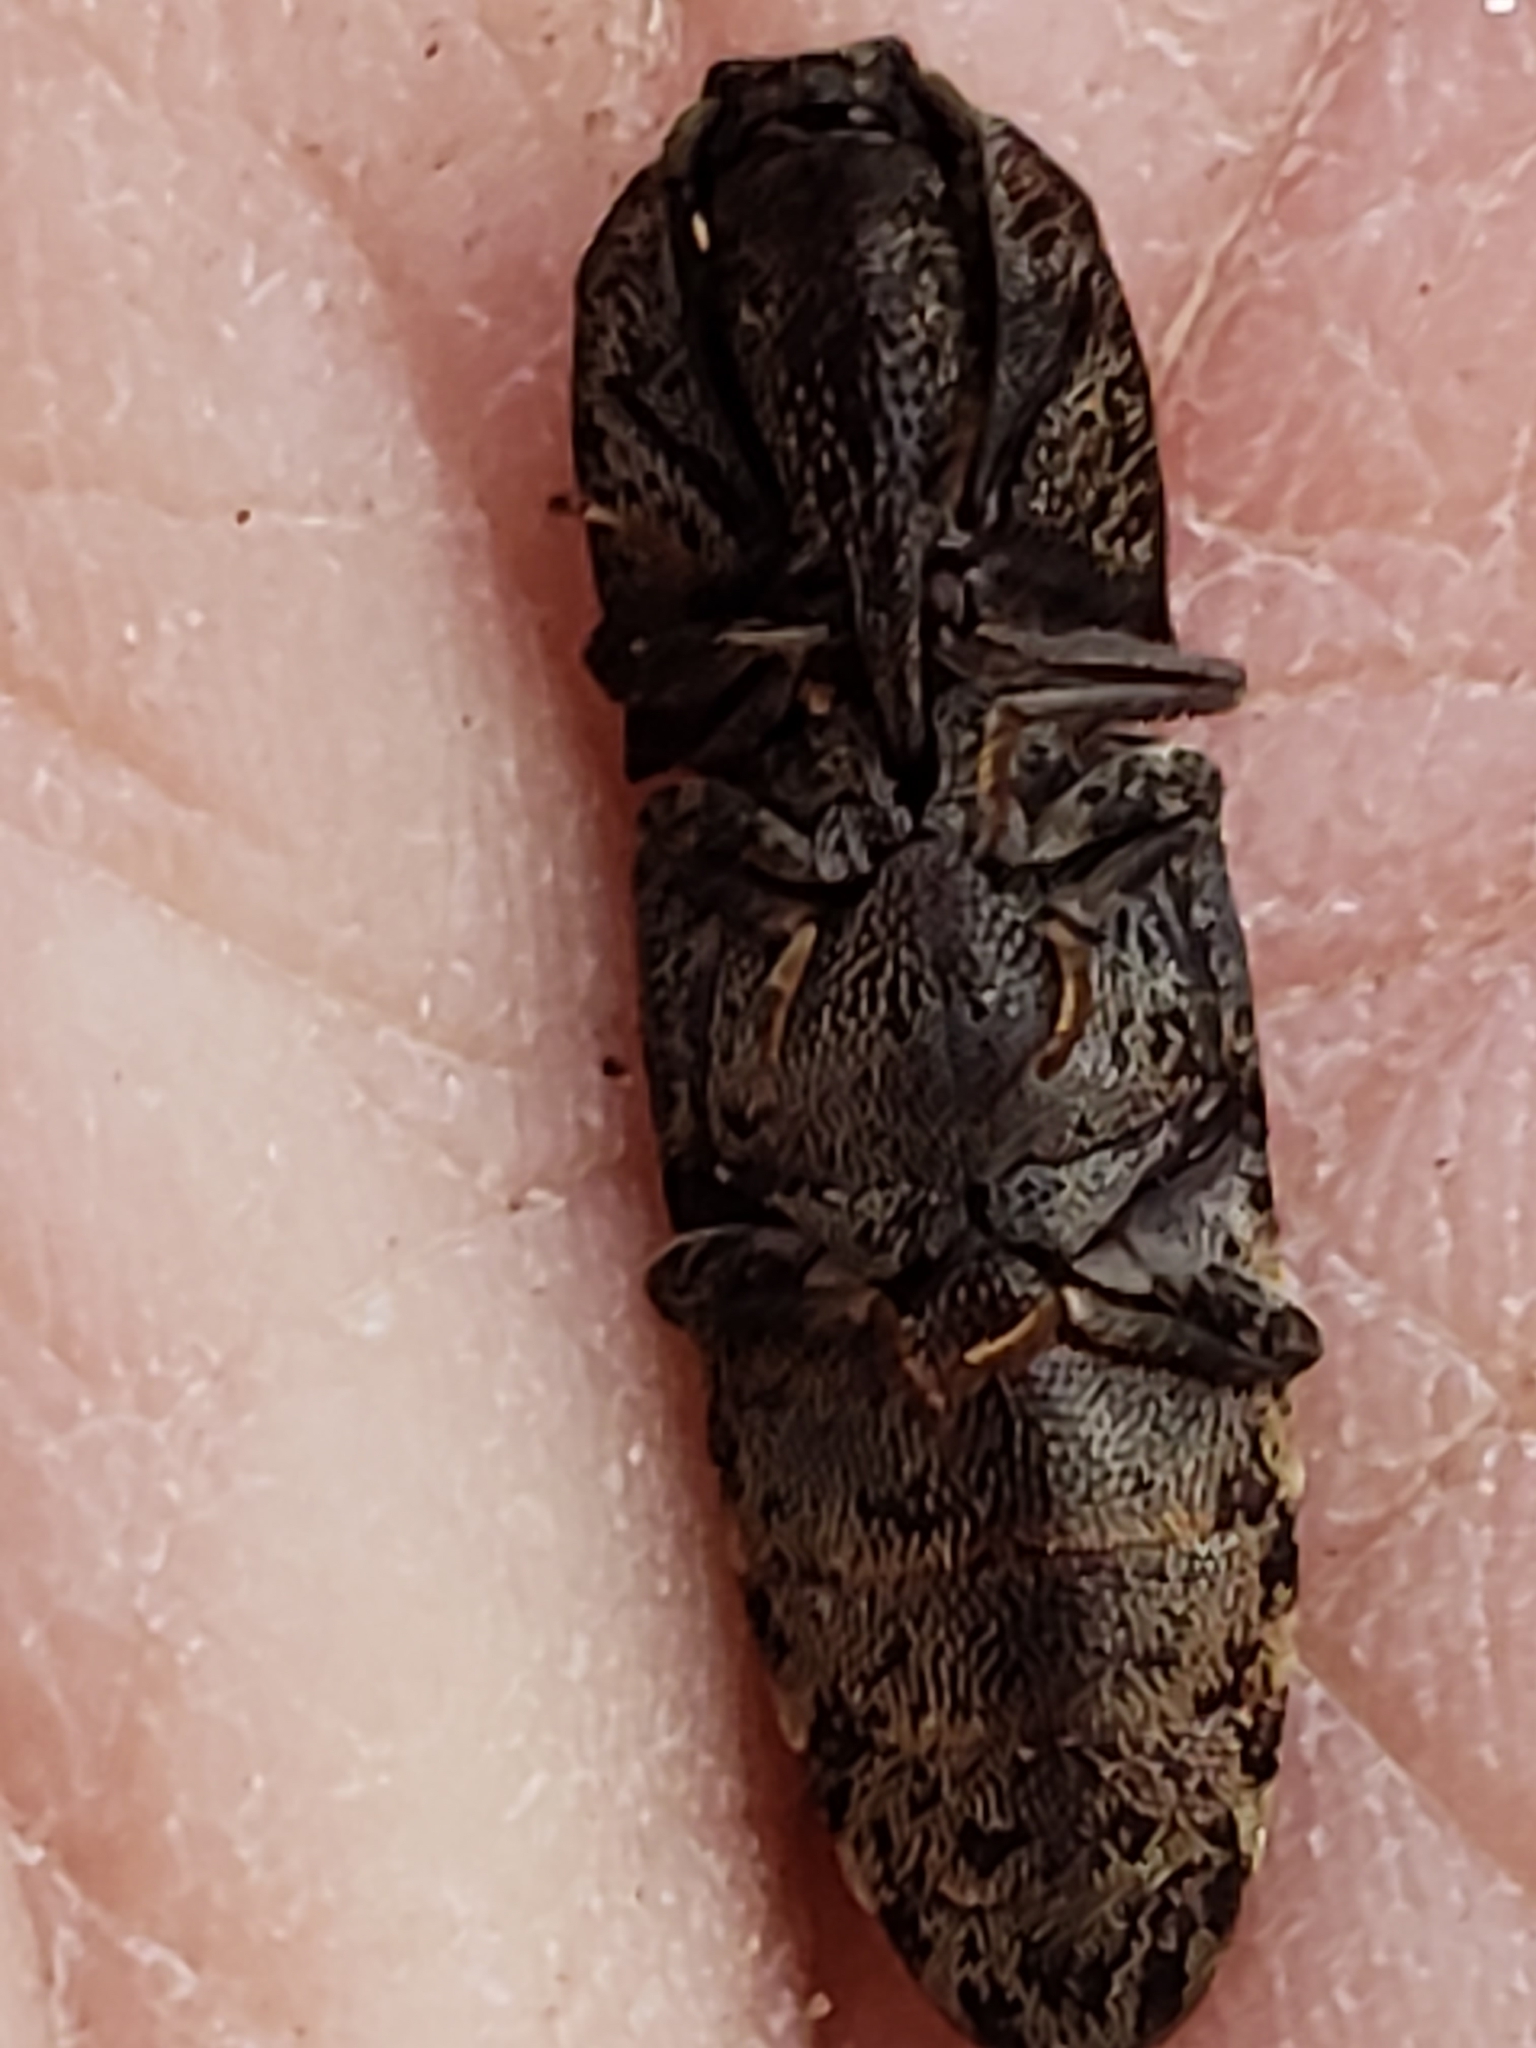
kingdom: Animalia
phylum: Arthropoda
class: Insecta
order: Coleoptera
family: Elateridae
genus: Lacon
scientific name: Lacon marmoratus
